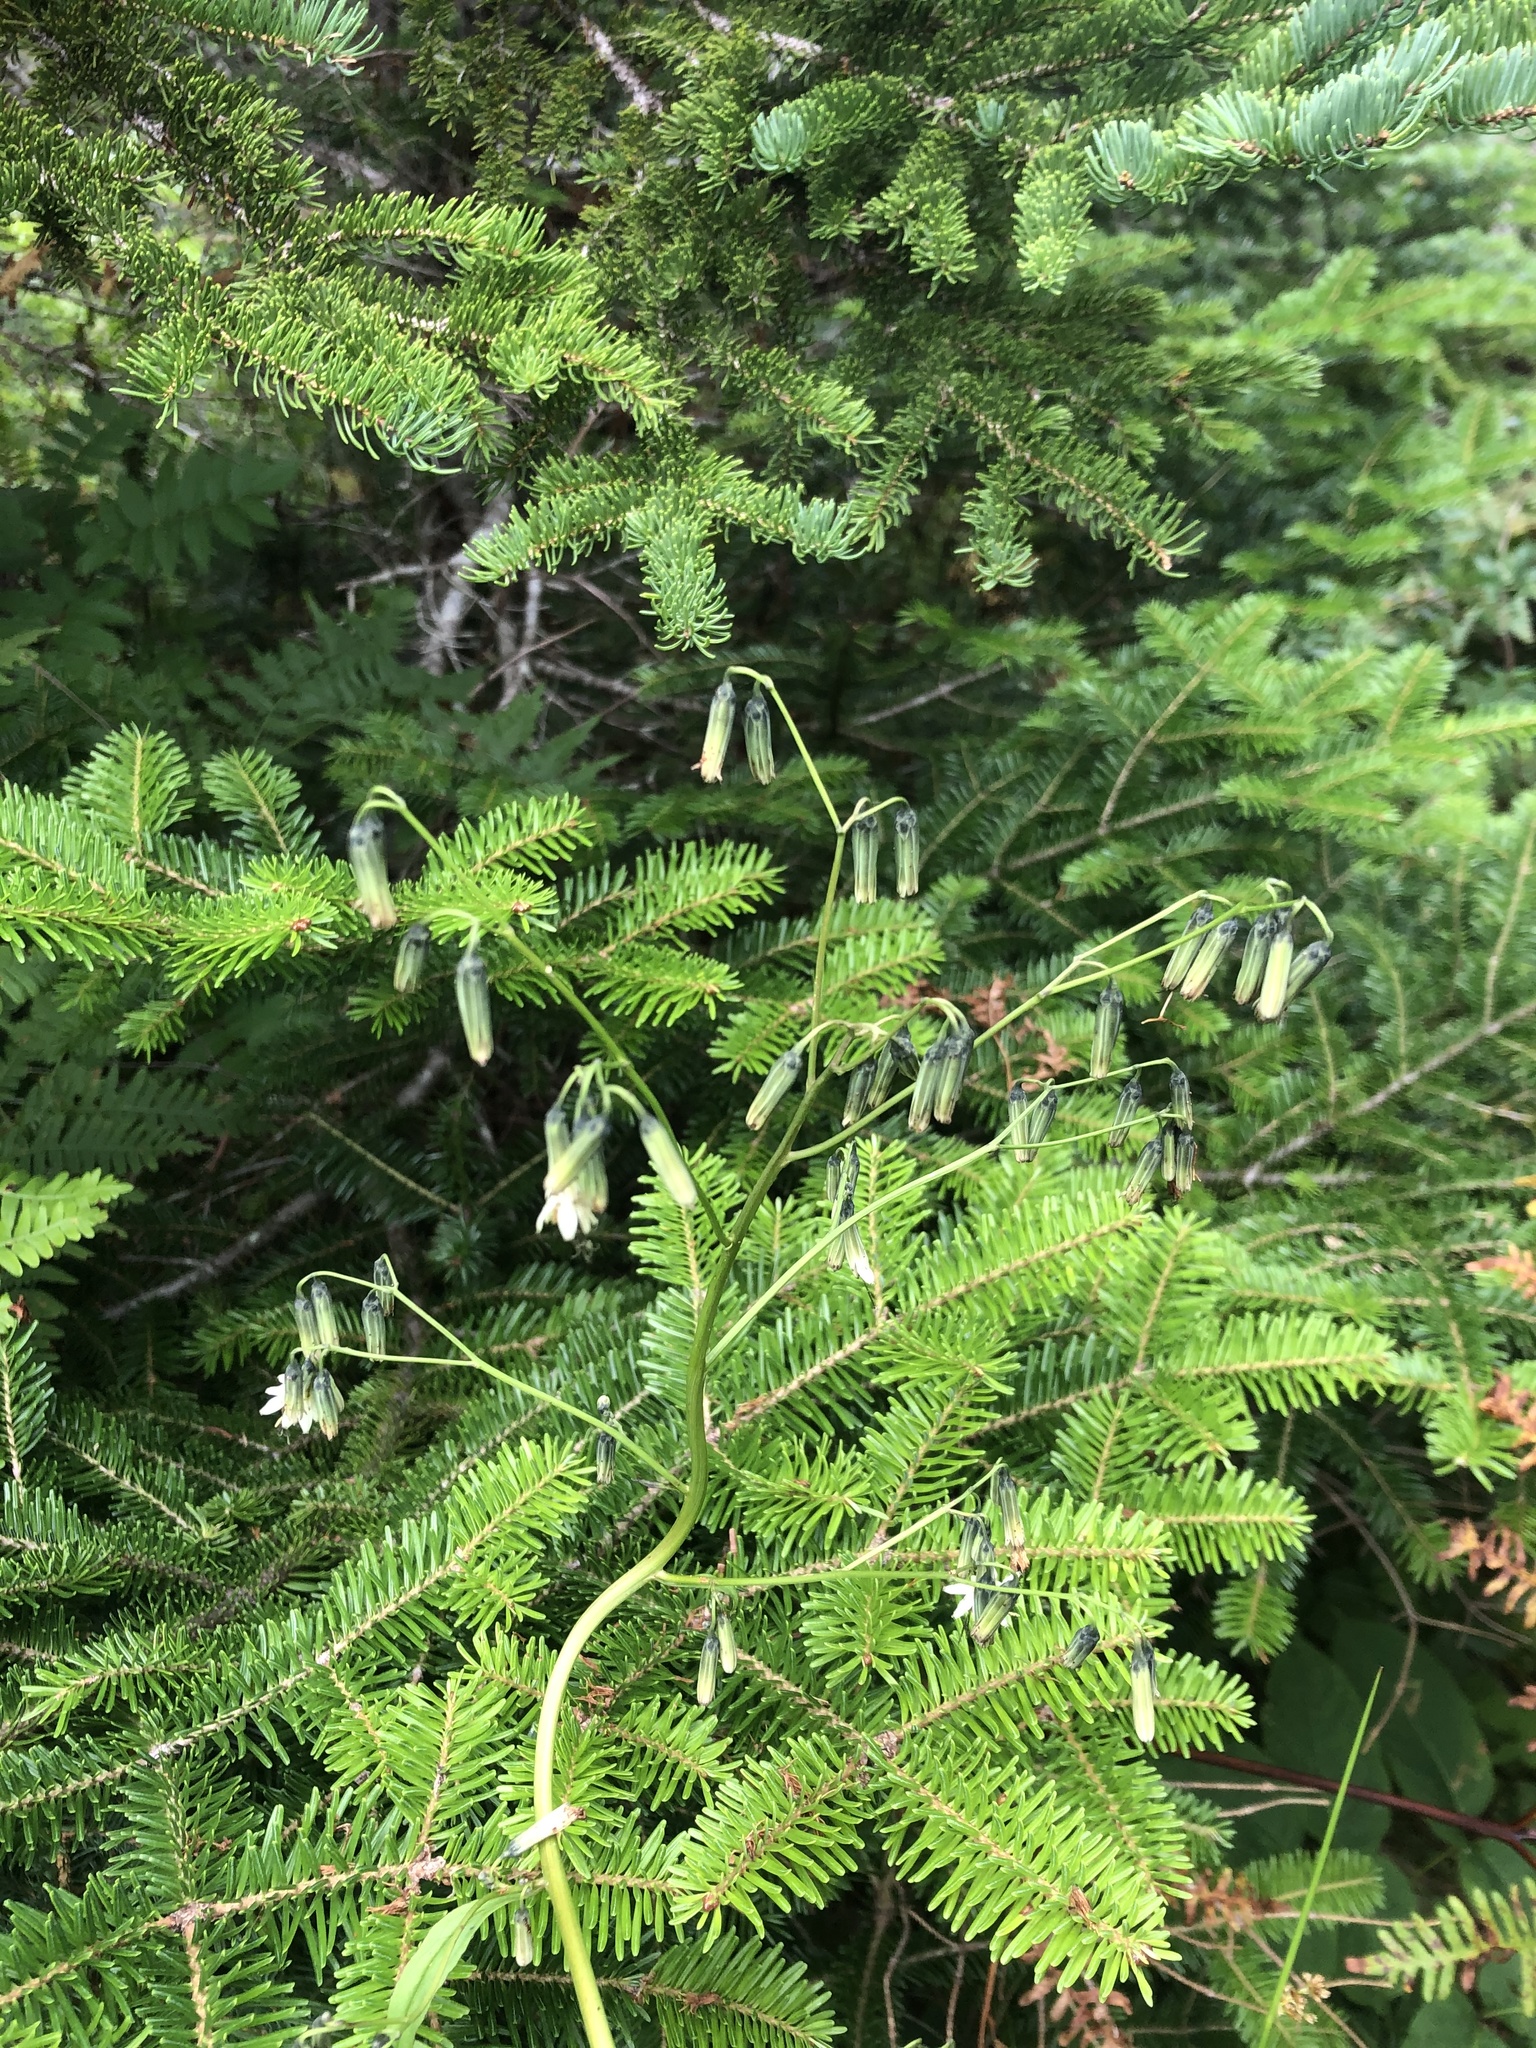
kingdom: Plantae
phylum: Tracheophyta
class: Magnoliopsida
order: Asterales
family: Asteraceae
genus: Nabalus
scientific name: Nabalus trifoliolatus
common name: Gall-of-the-earth
